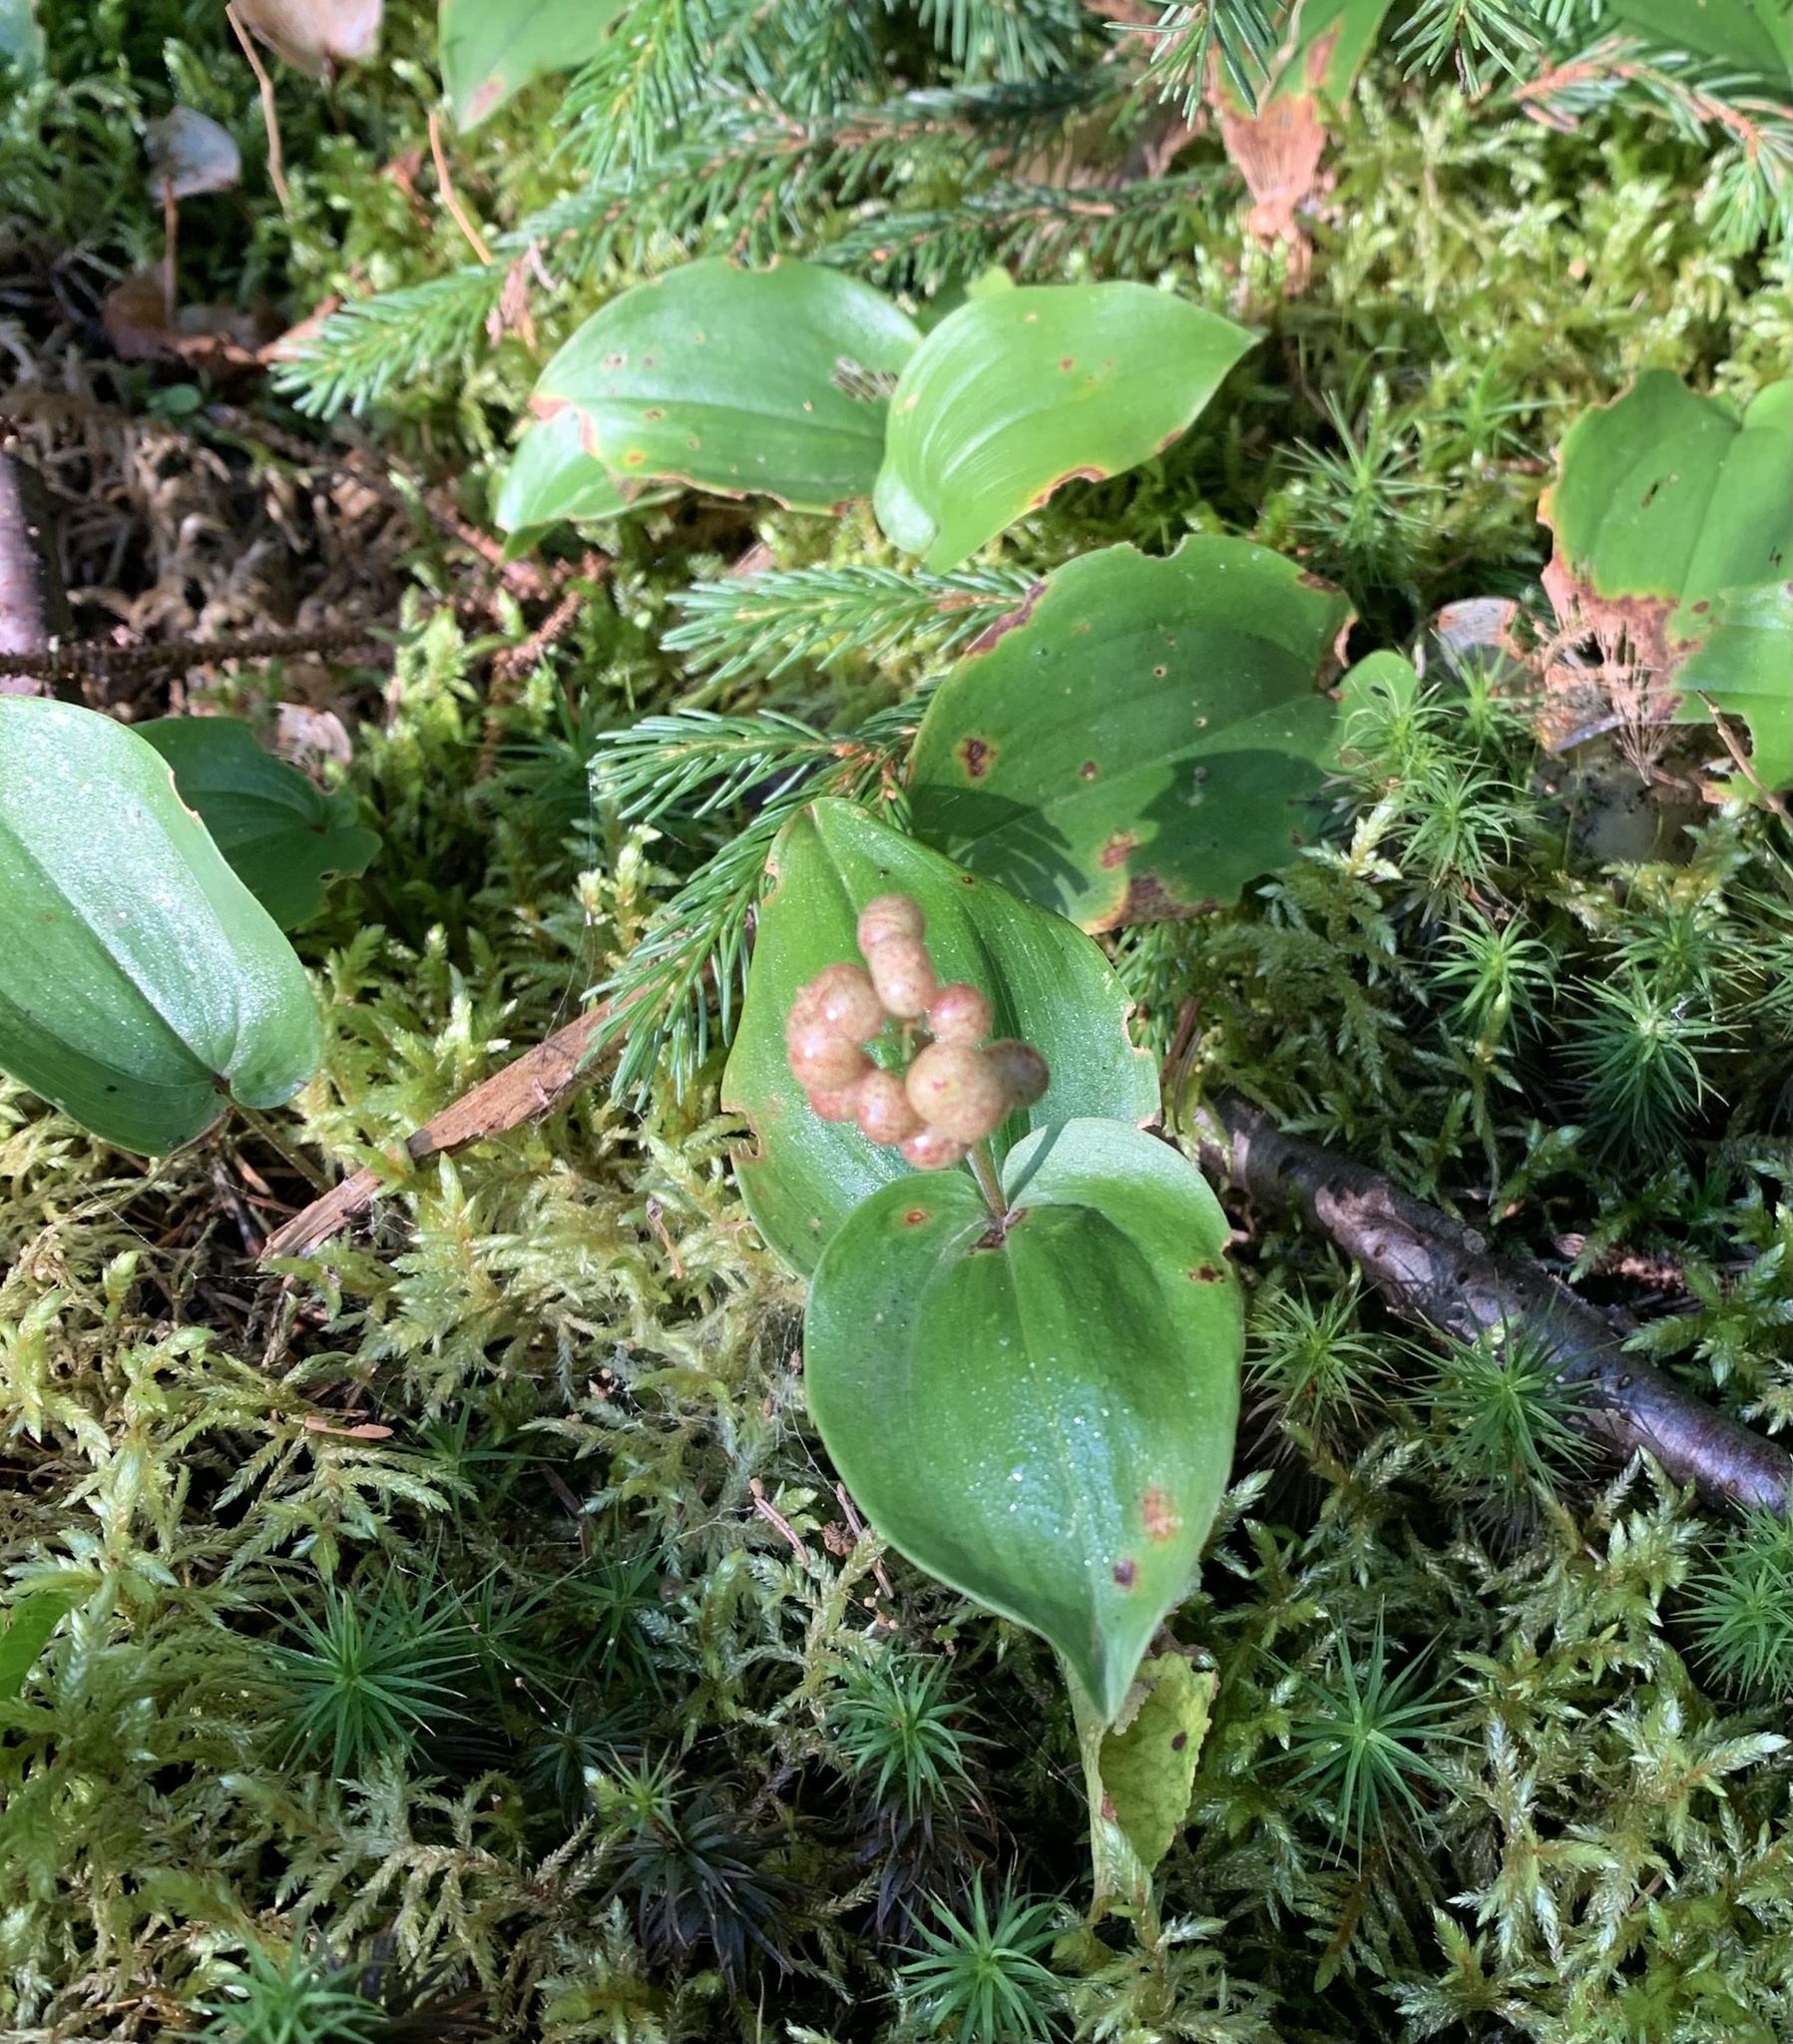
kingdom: Plantae
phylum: Tracheophyta
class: Liliopsida
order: Asparagales
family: Asparagaceae
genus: Maianthemum
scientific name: Maianthemum canadense
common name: False lily-of-the-valley
